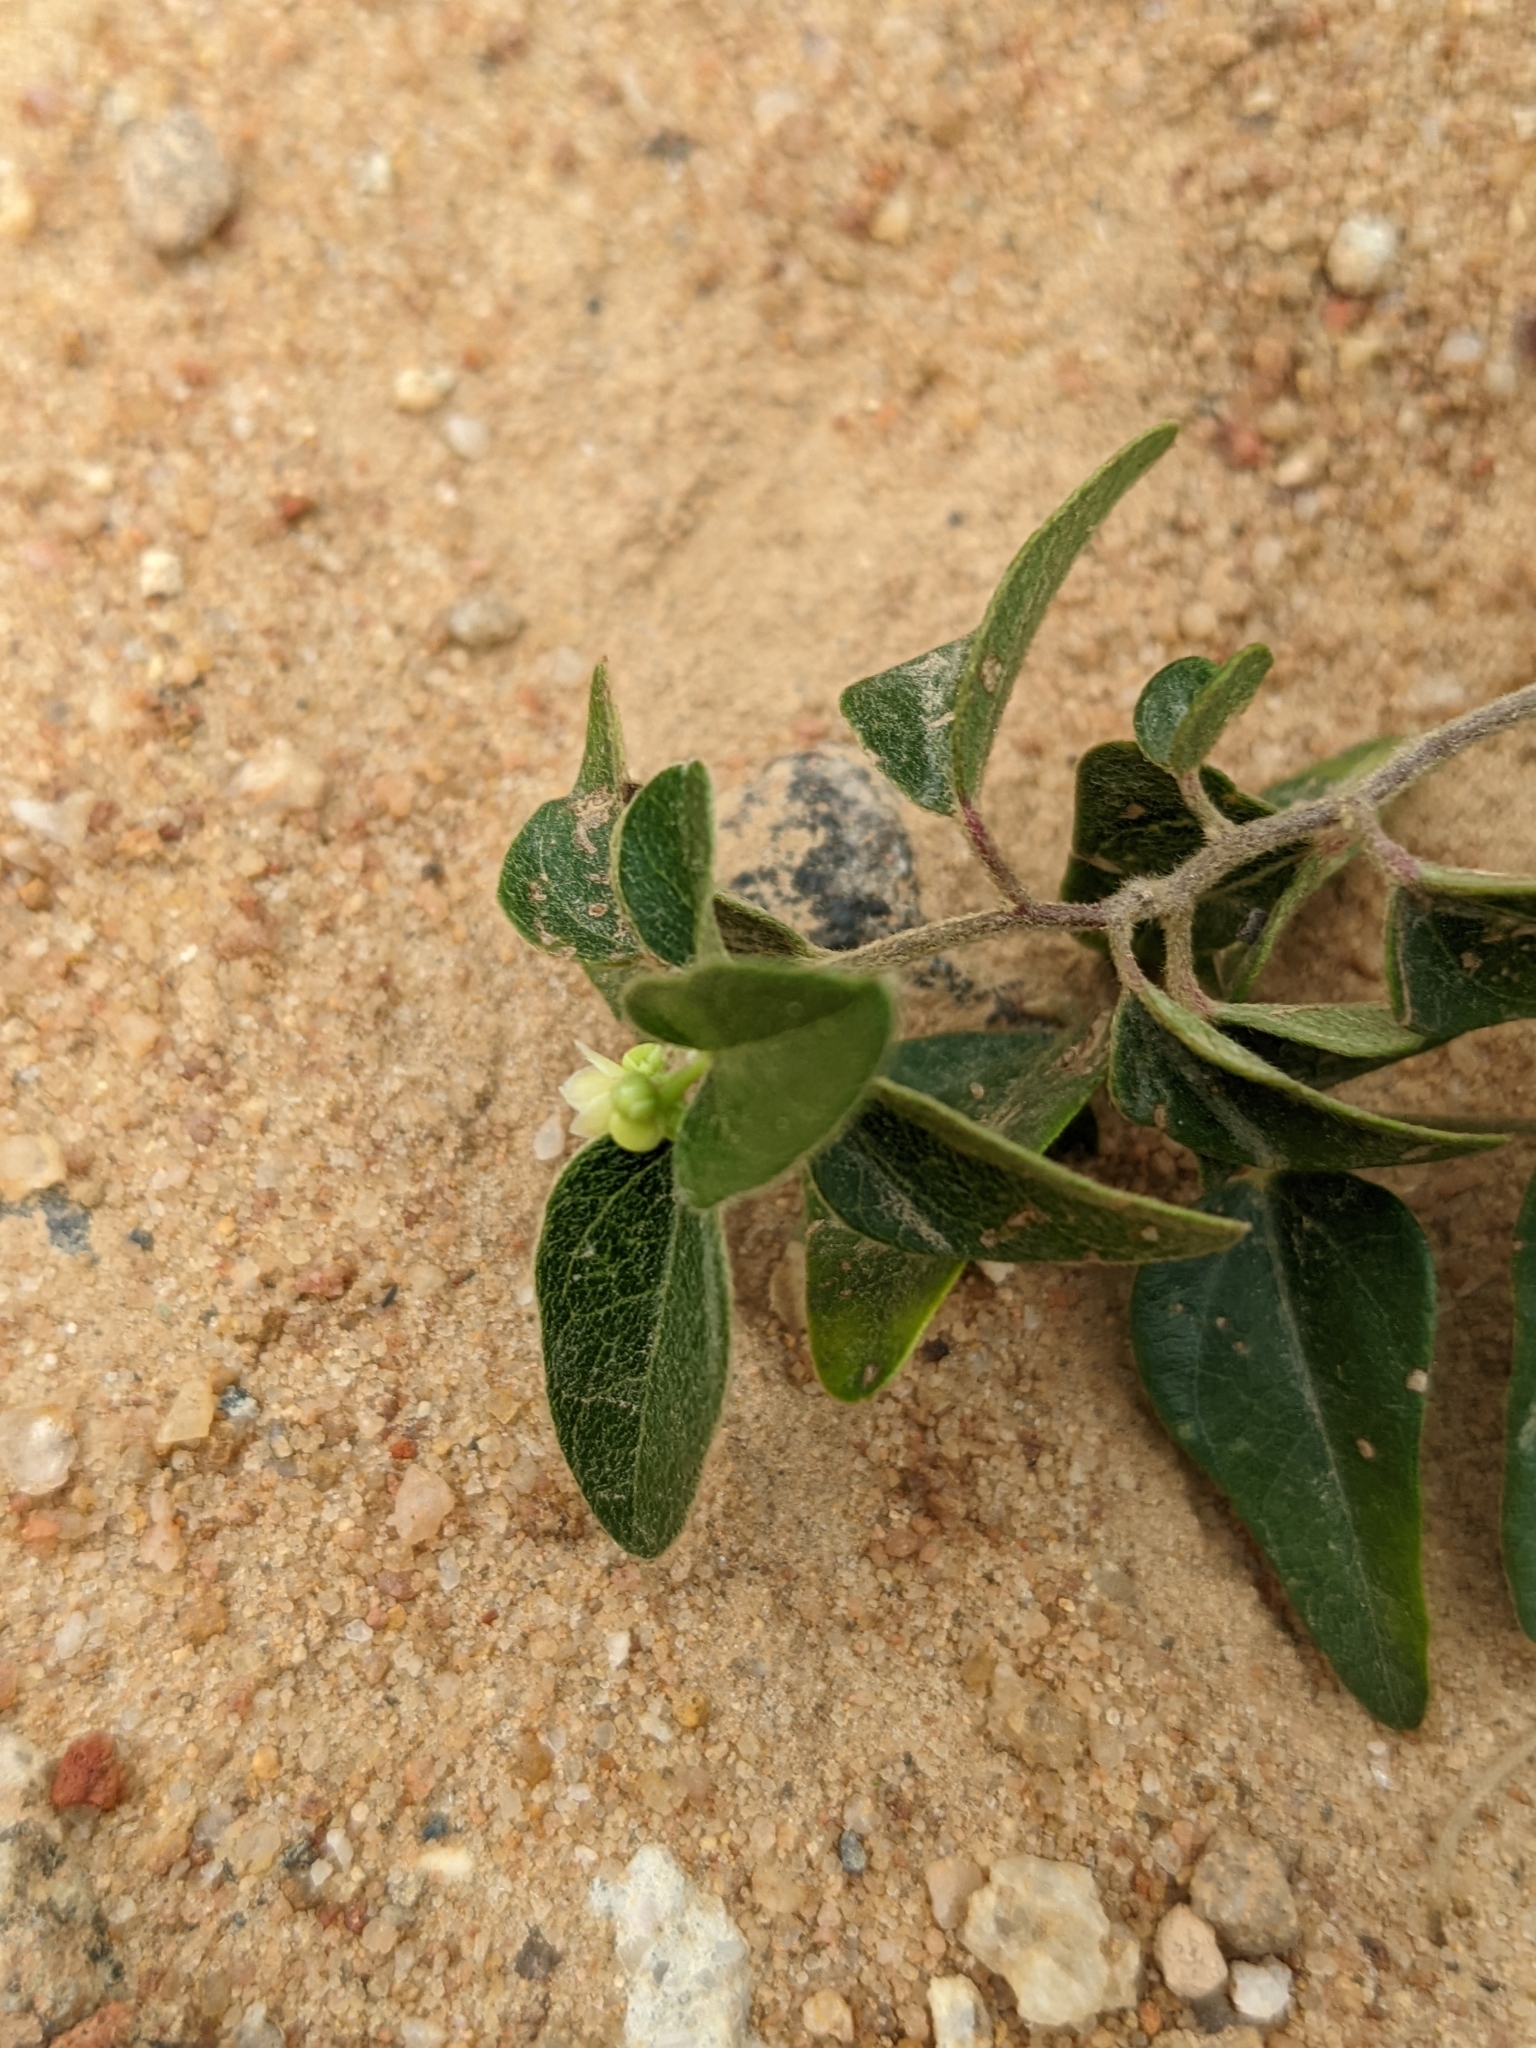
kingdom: Plantae
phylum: Tracheophyta
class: Magnoliopsida
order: Ranunculales
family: Menispermaceae
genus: Cocculus
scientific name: Cocculus orbiculatus
